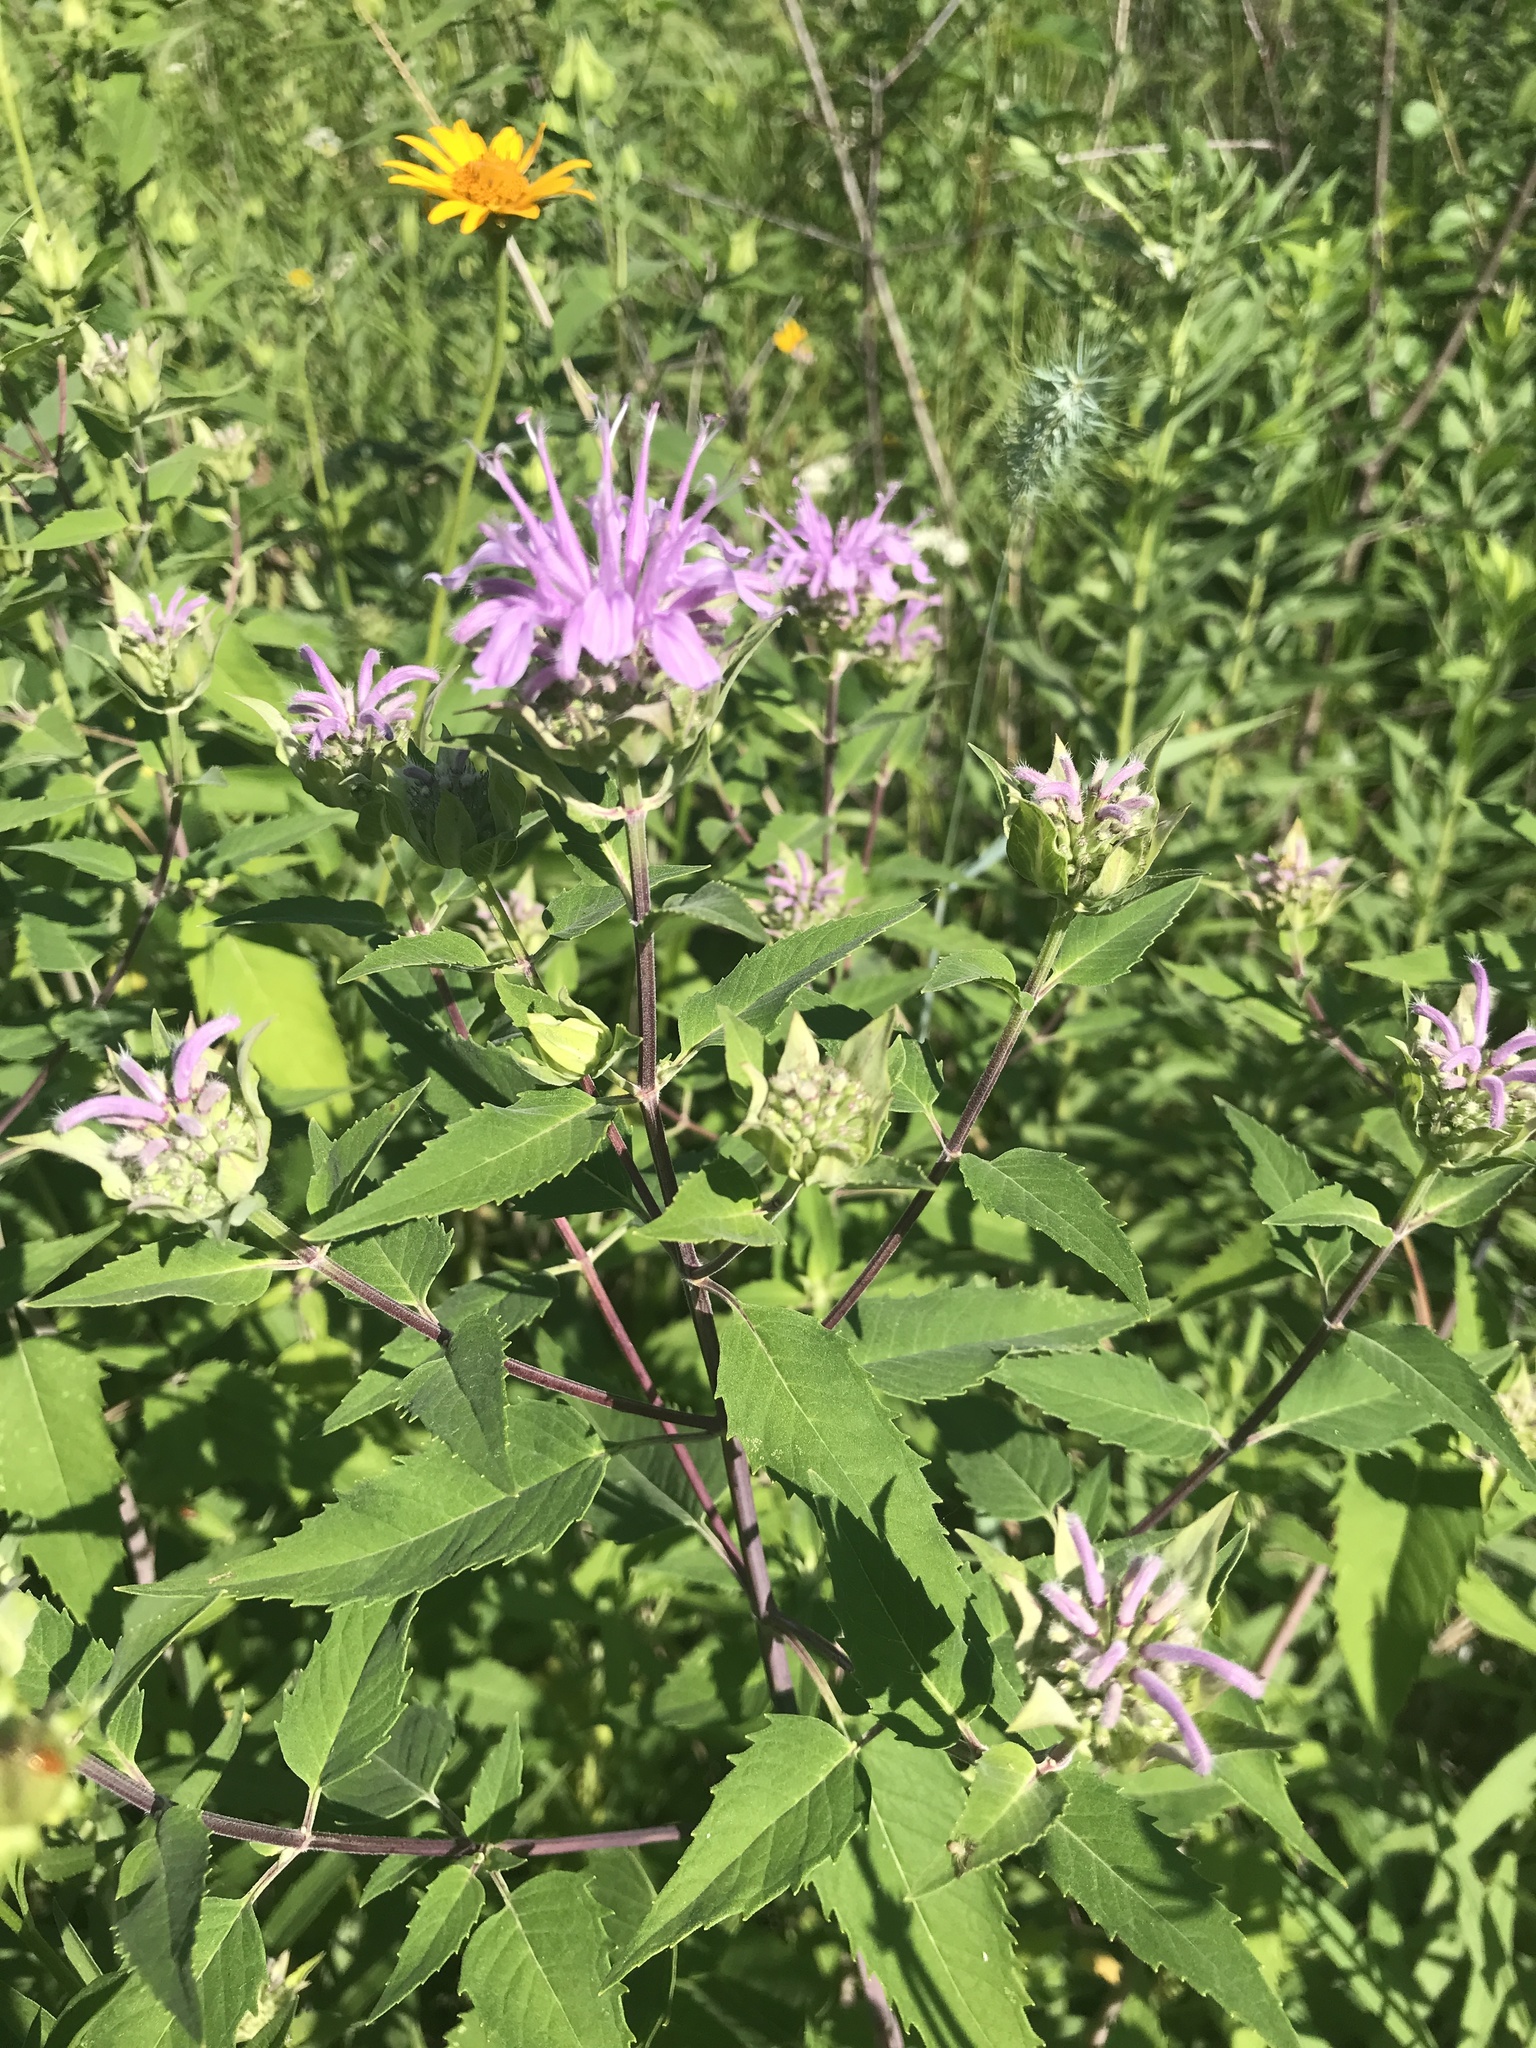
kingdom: Plantae
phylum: Tracheophyta
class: Magnoliopsida
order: Lamiales
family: Lamiaceae
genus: Monarda
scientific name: Monarda fistulosa
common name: Purple beebalm
